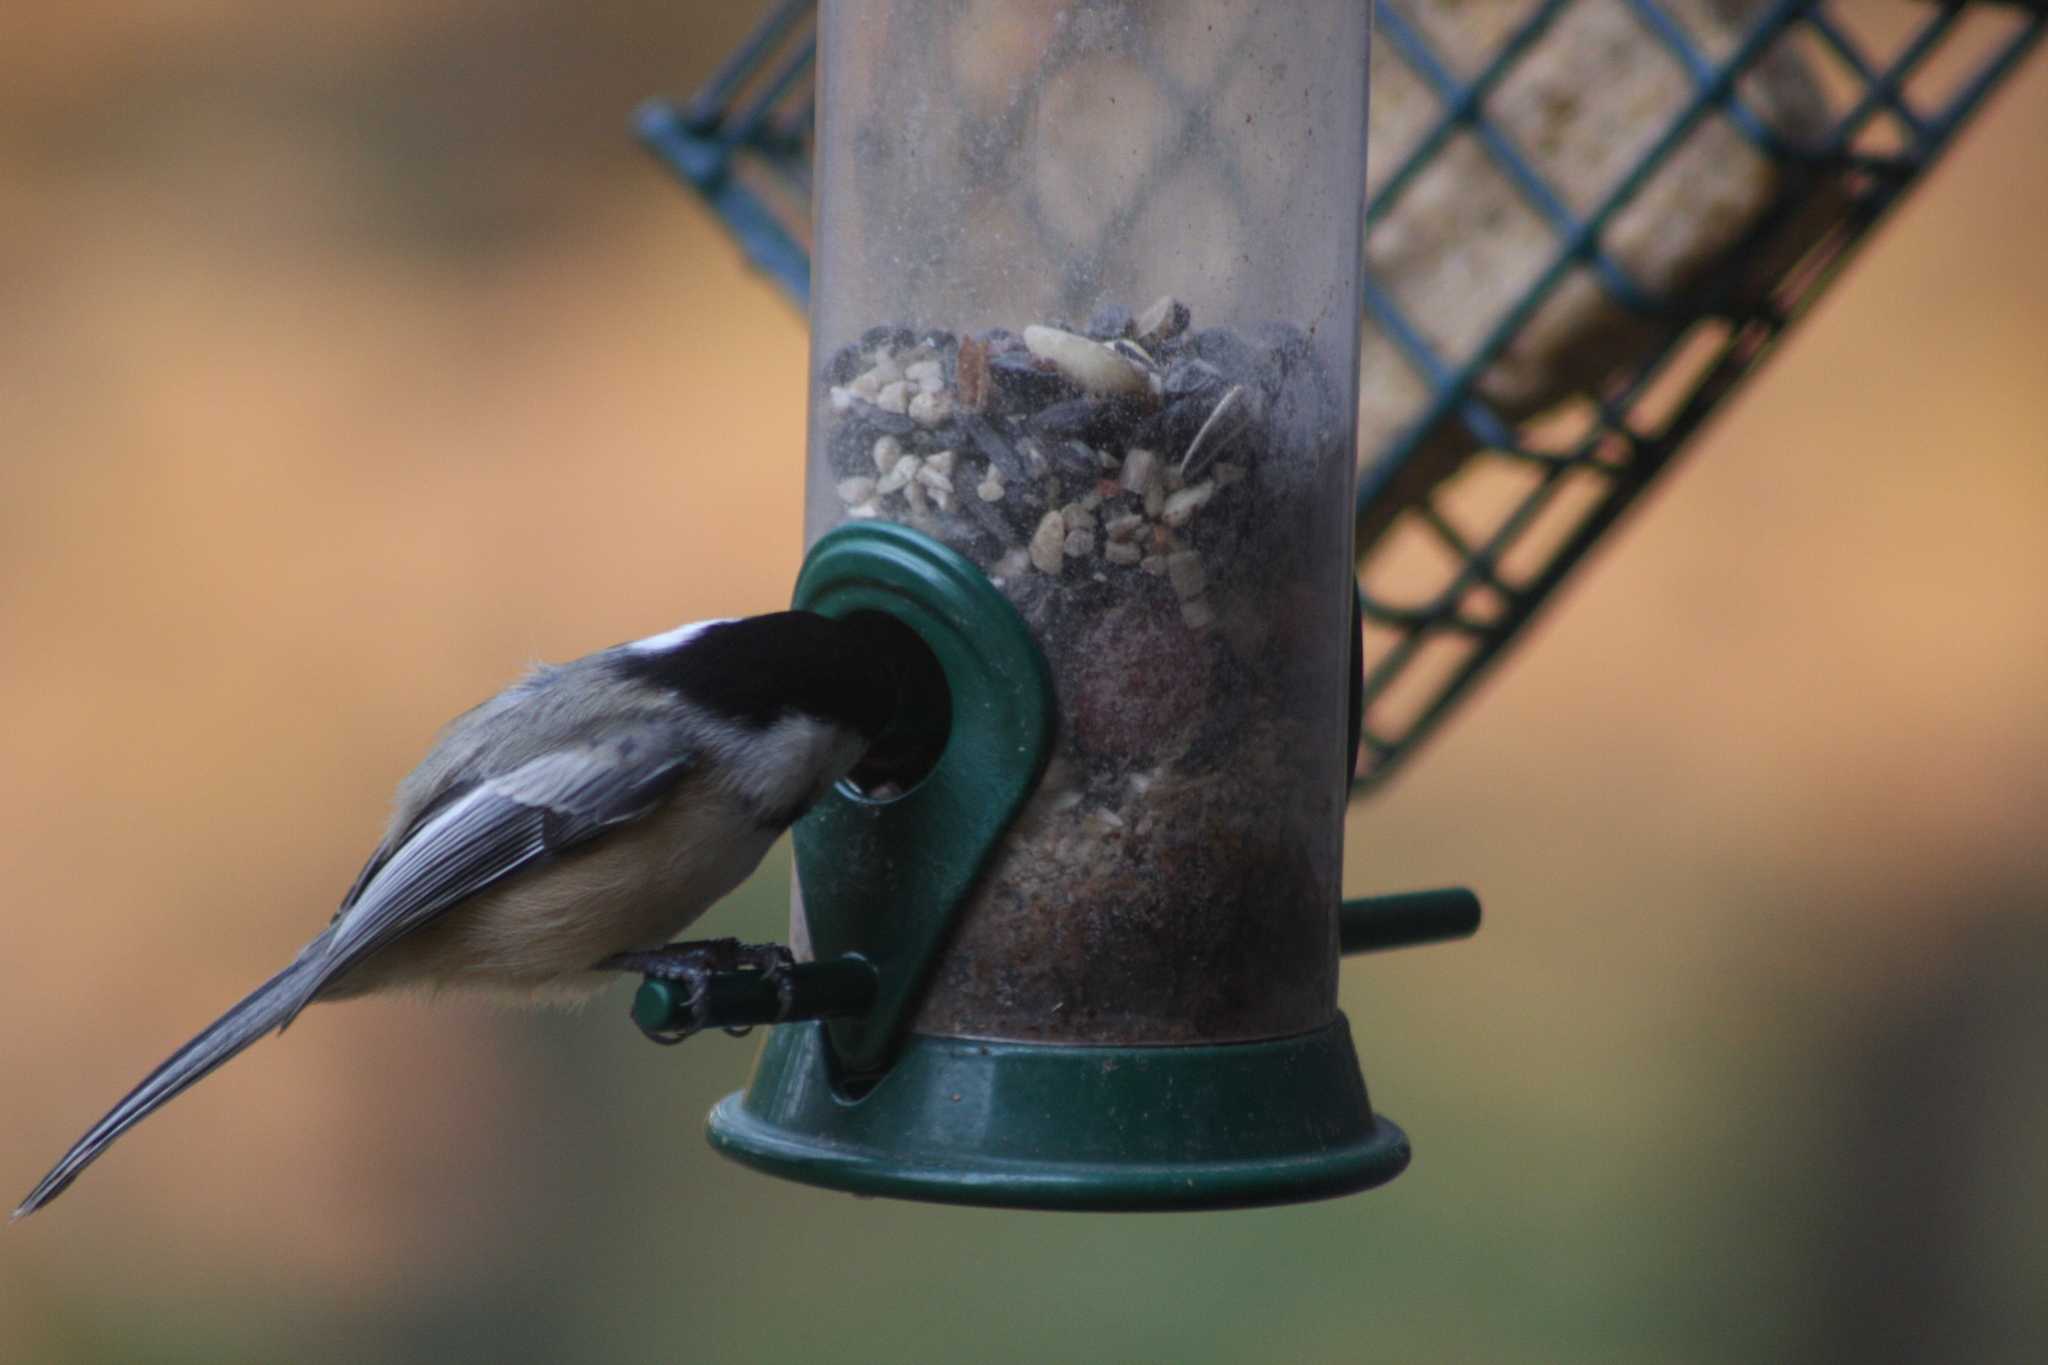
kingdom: Animalia
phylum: Chordata
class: Aves
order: Passeriformes
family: Paridae
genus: Poecile
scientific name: Poecile atricapillus
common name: Black-capped chickadee
